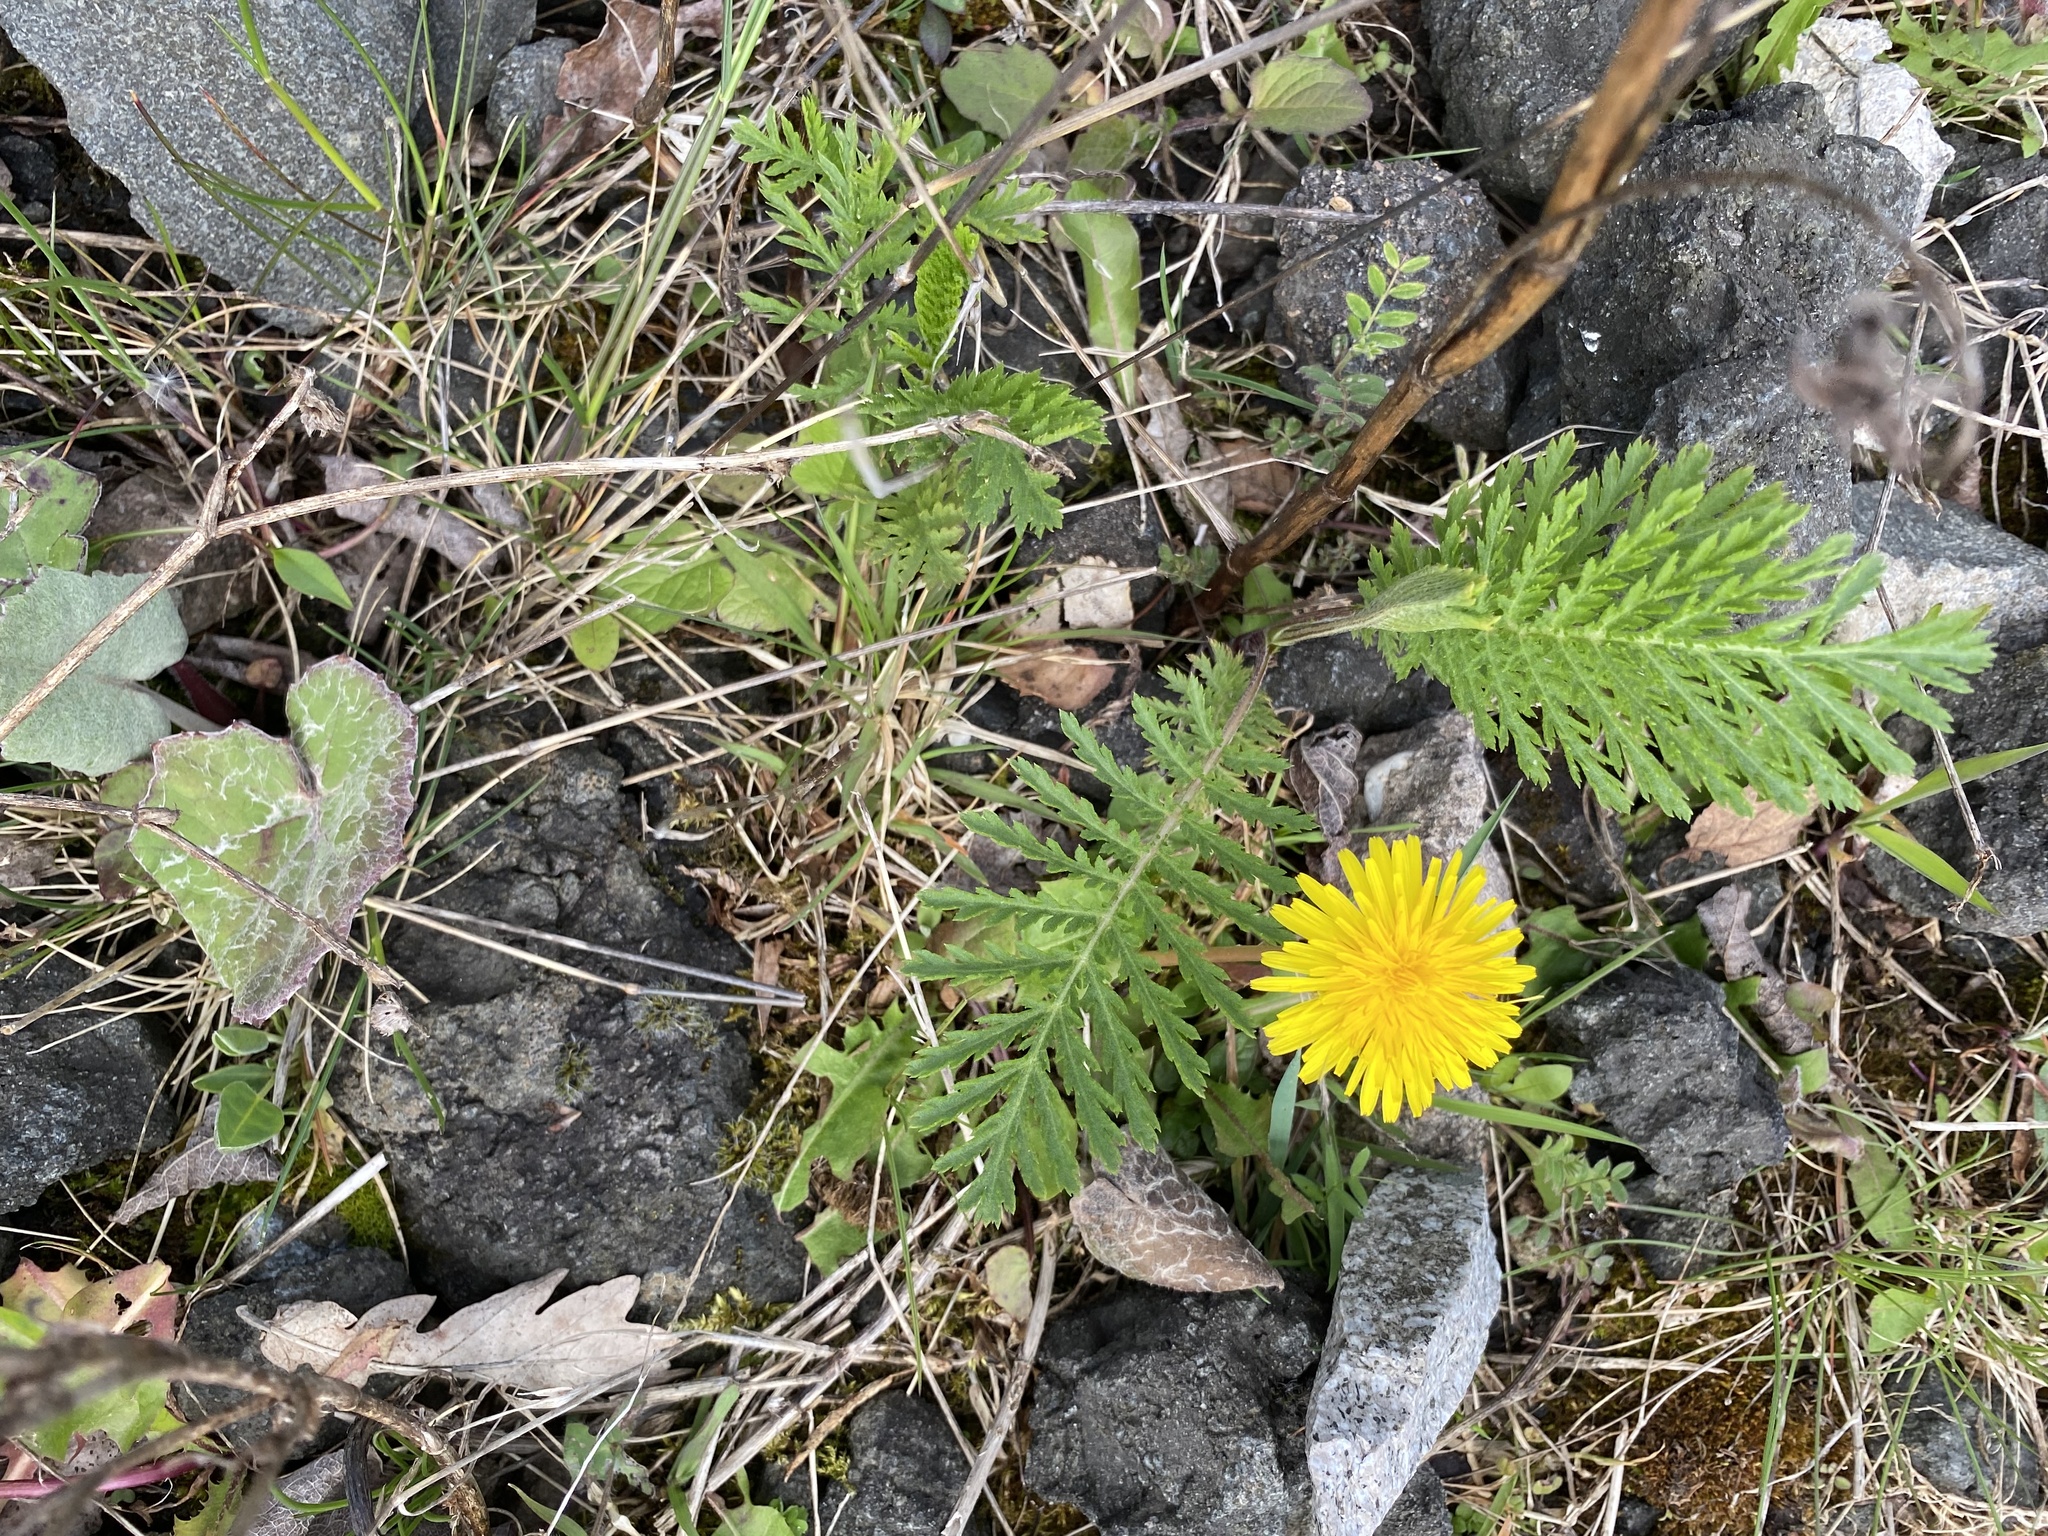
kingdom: Plantae
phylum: Tracheophyta
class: Magnoliopsida
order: Asterales
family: Asteraceae
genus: Tanacetum
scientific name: Tanacetum vulgare
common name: Common tansy
